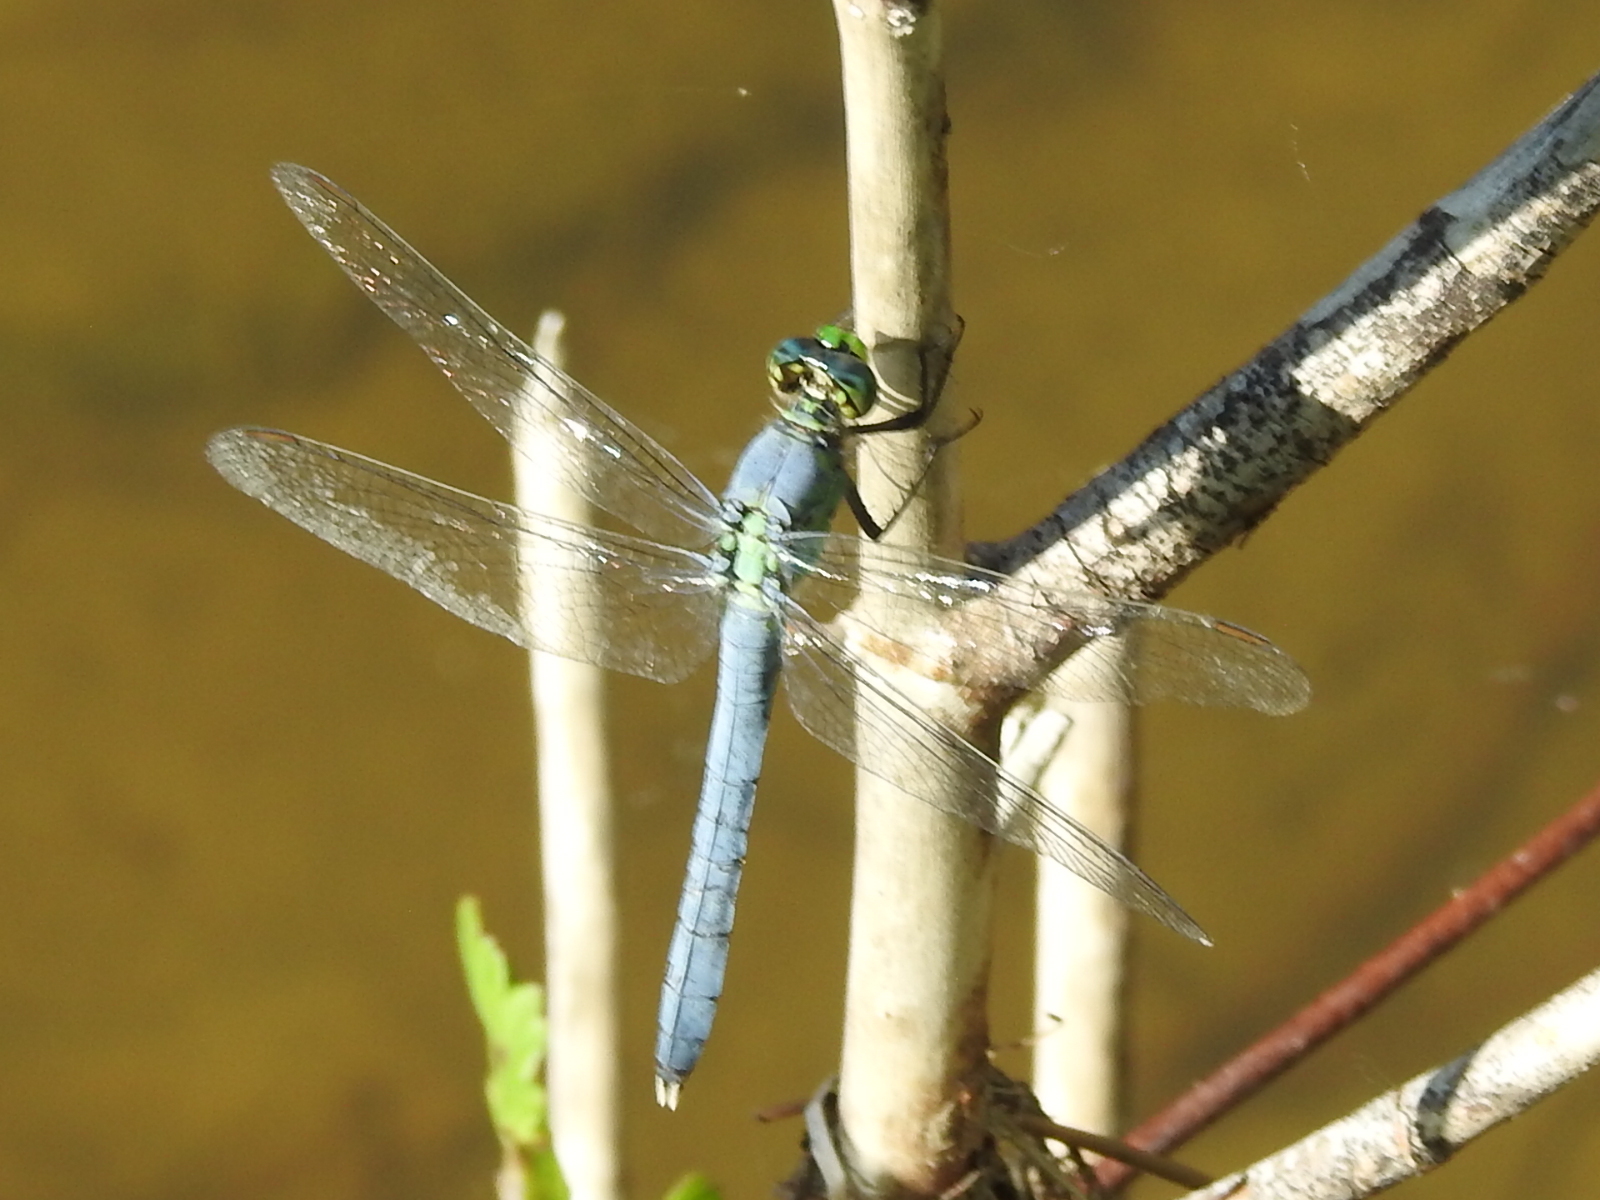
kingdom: Animalia
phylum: Arthropoda
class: Insecta
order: Odonata
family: Libellulidae
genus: Erythemis
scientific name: Erythemis simplicicollis
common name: Eastern pondhawk
